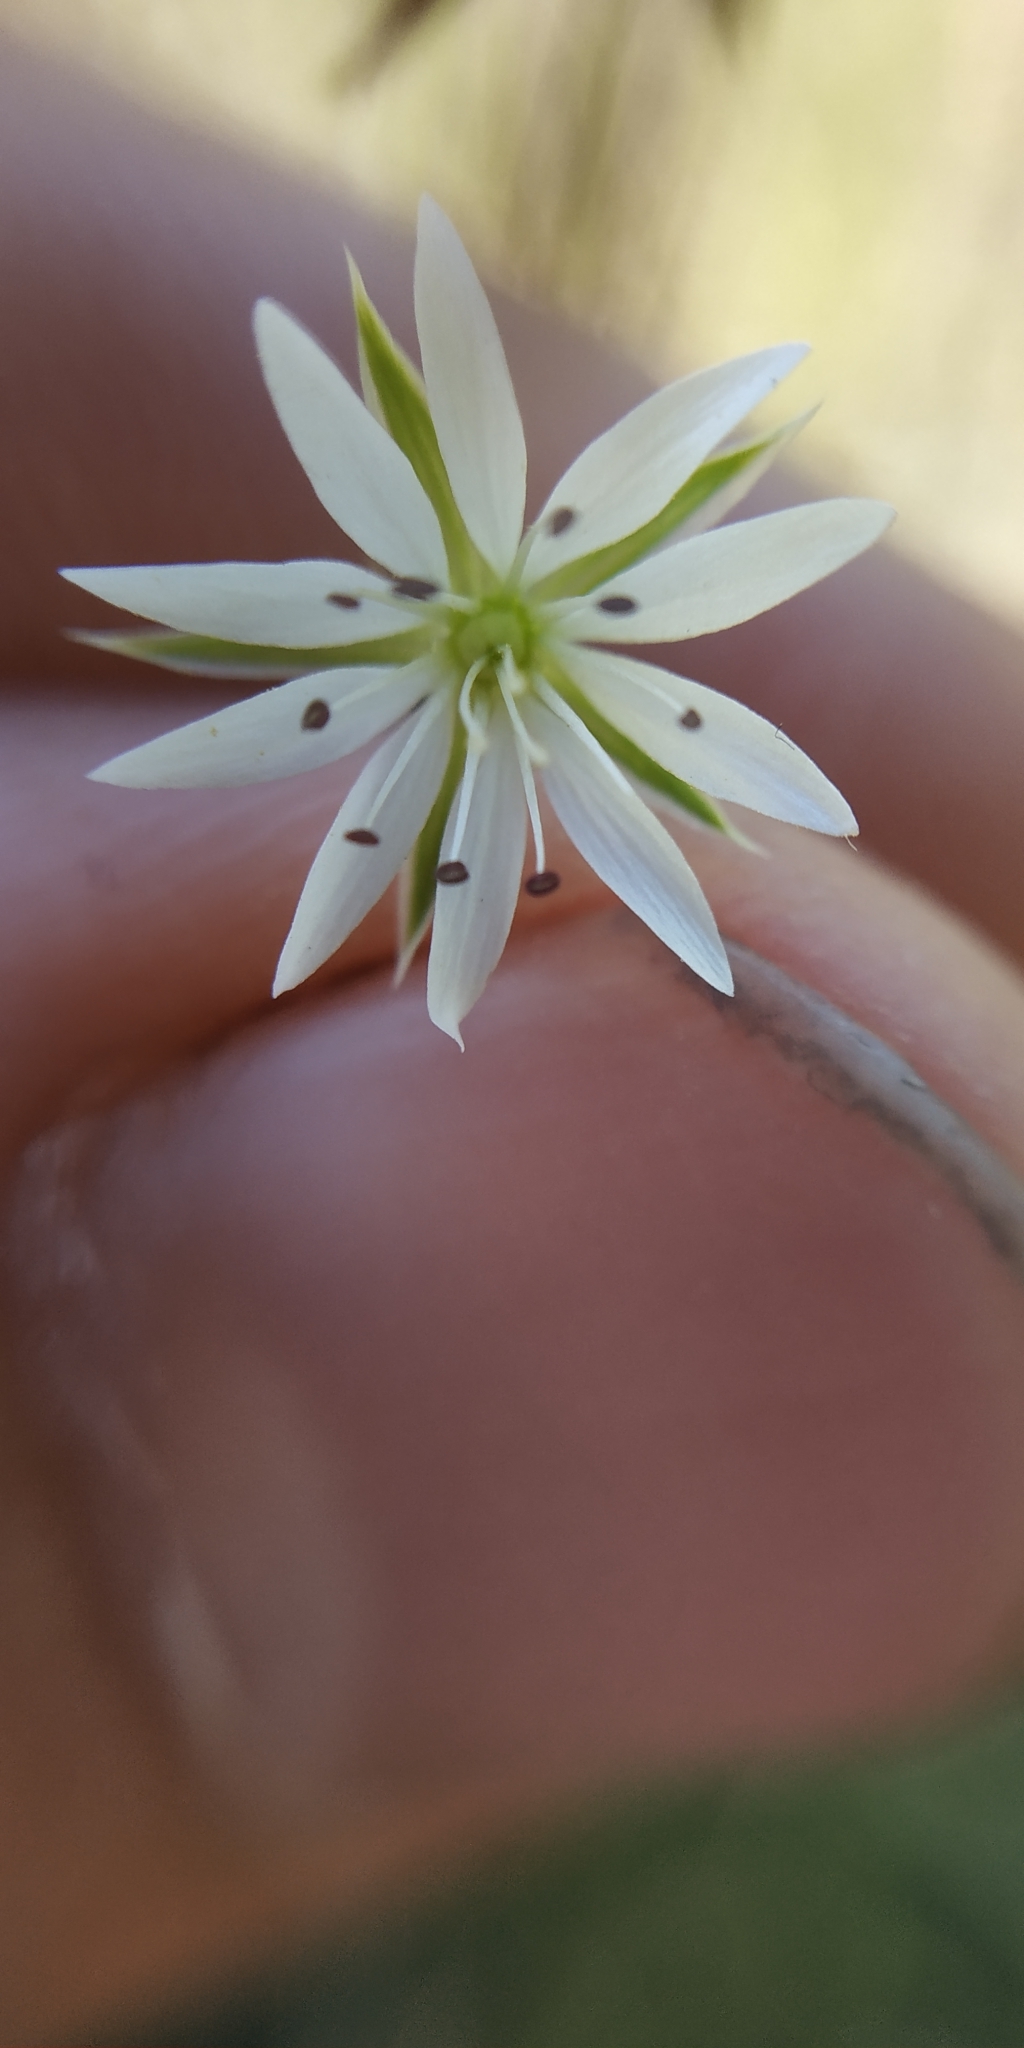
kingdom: Plantae
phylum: Tracheophyta
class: Magnoliopsida
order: Caryophyllales
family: Caryophyllaceae
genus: Stellaria
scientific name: Stellaria graminea
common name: Grass-like starwort
